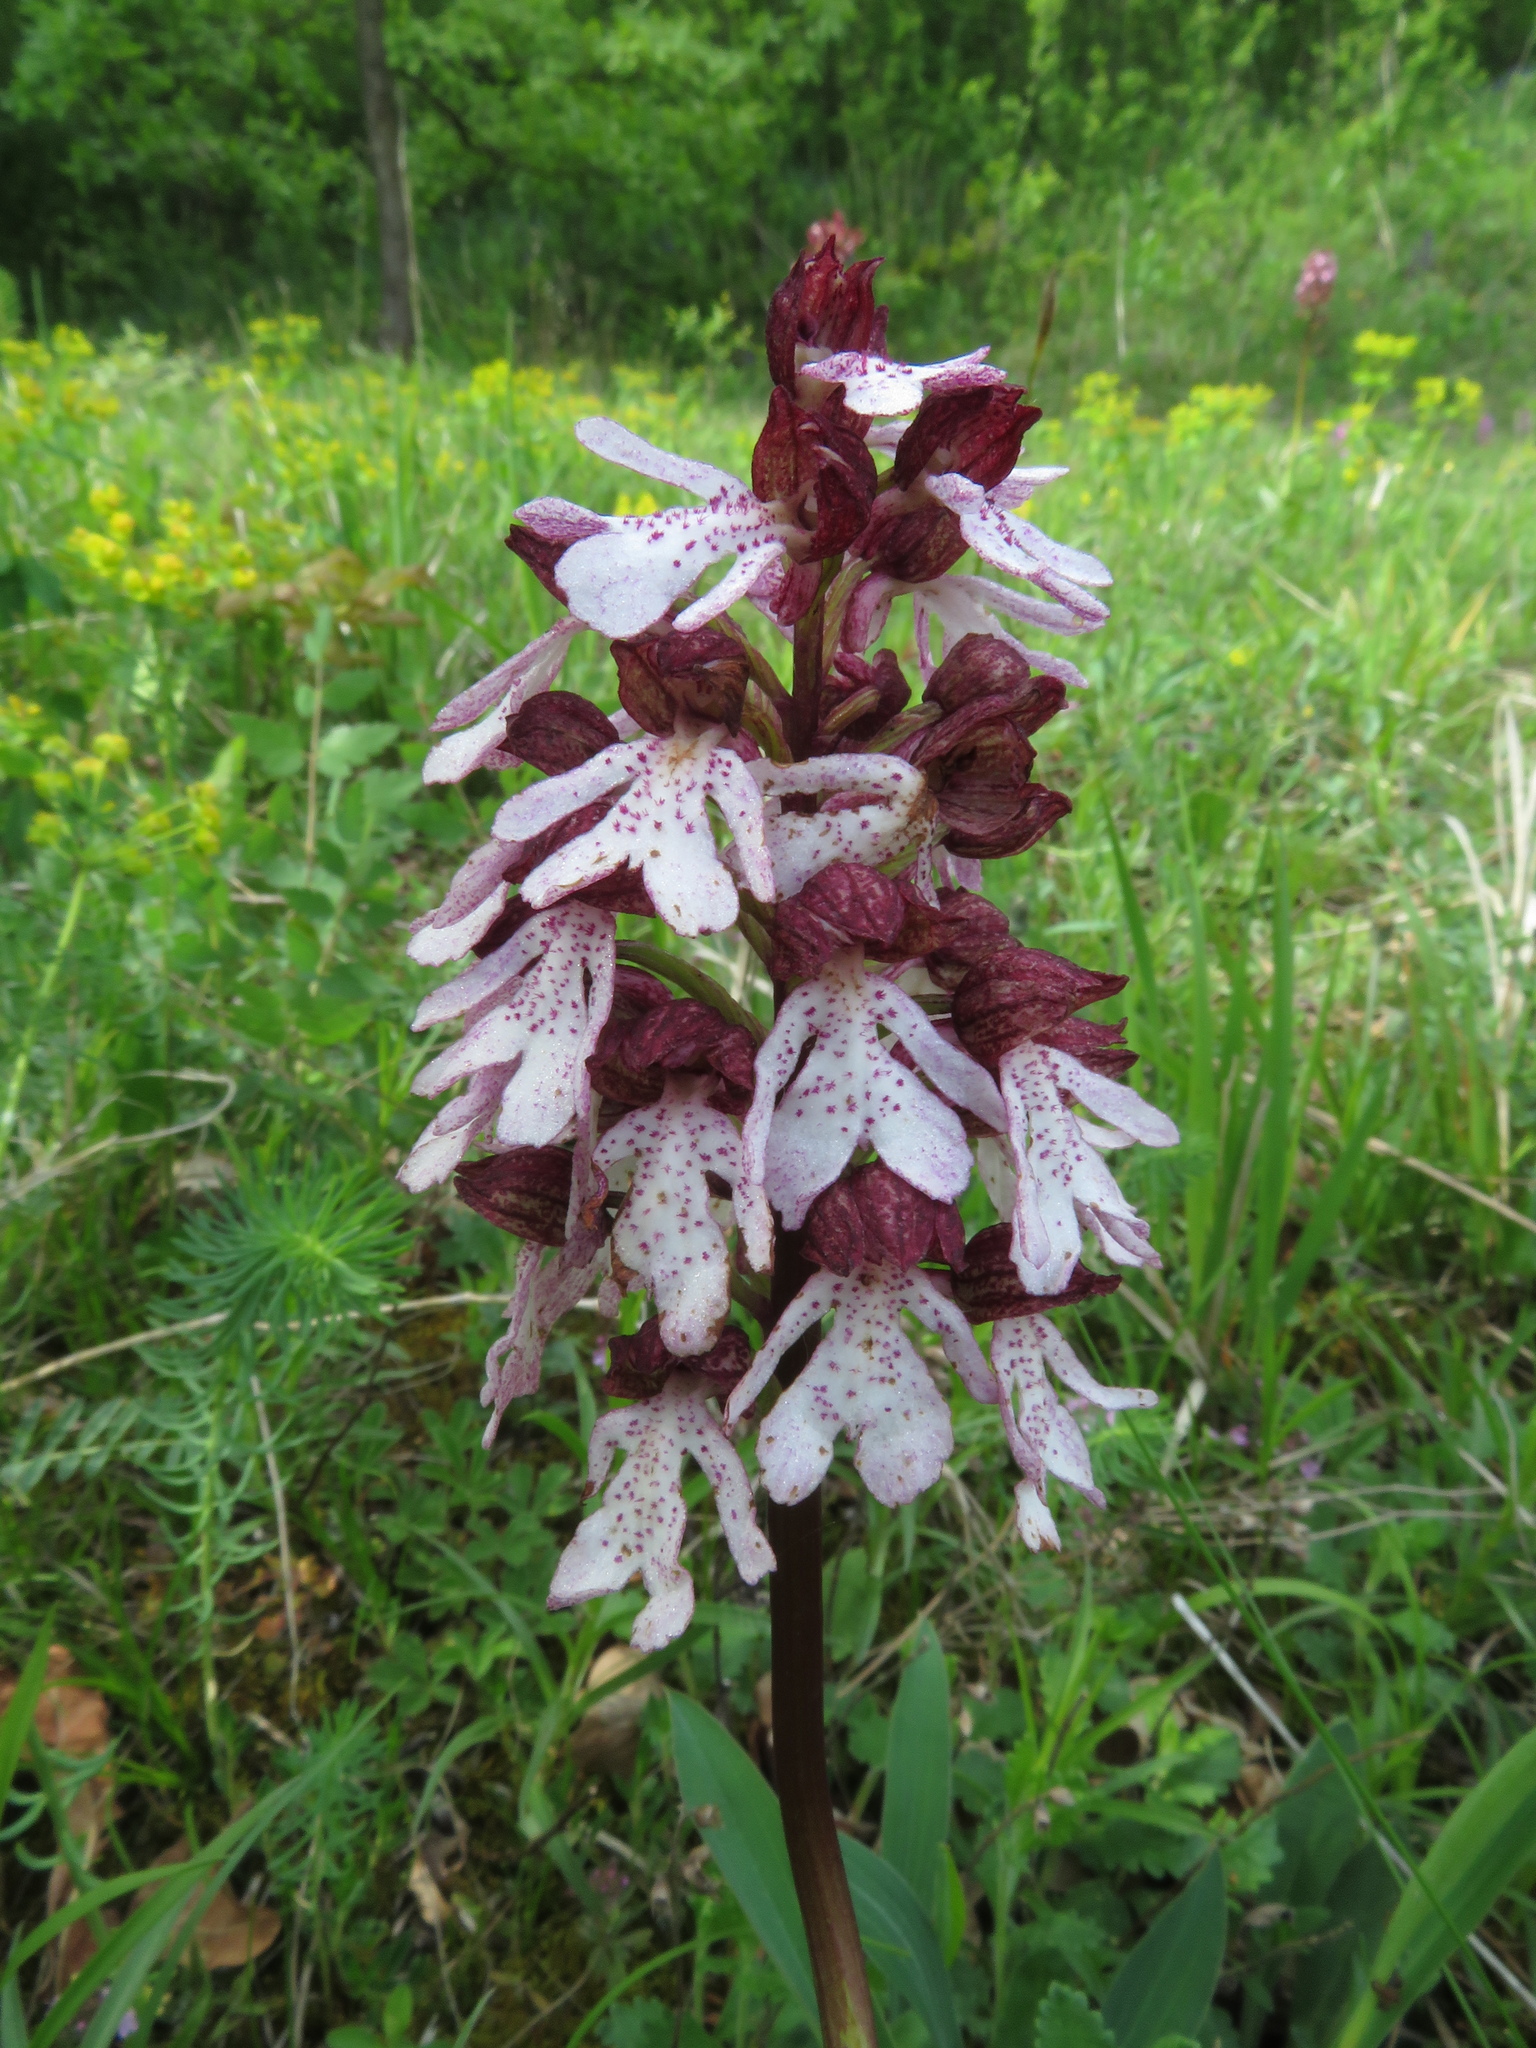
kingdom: Plantae
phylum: Tracheophyta
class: Liliopsida
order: Asparagales
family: Orchidaceae
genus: Orchis
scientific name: Orchis purpurea
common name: Lady orchid
